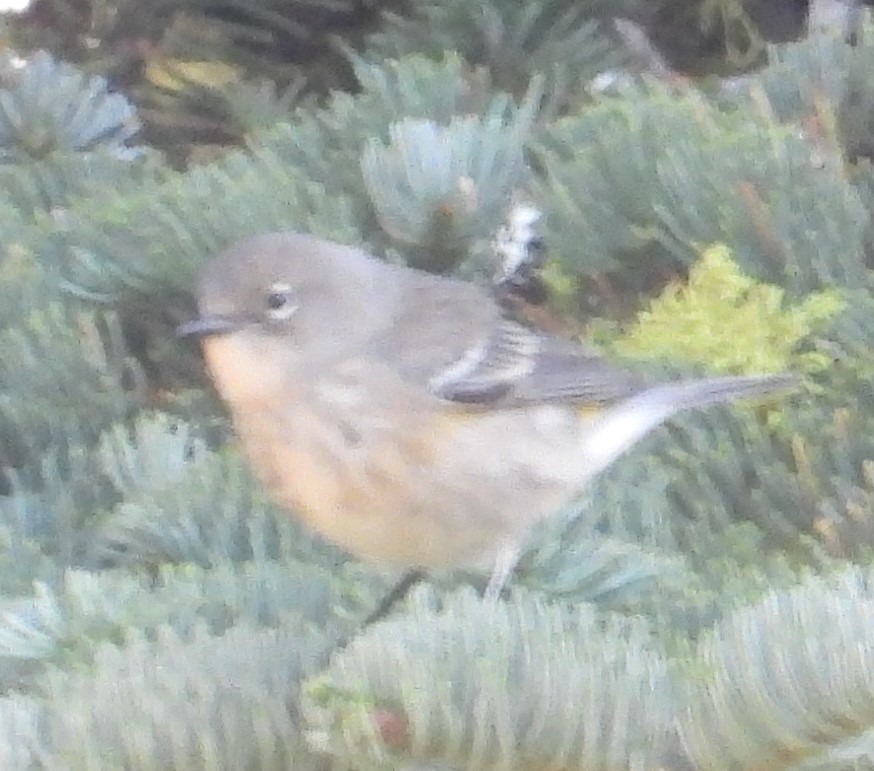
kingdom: Animalia
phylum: Chordata
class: Aves
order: Passeriformes
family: Parulidae
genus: Setophaga
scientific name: Setophaga coronata
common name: Myrtle warbler
